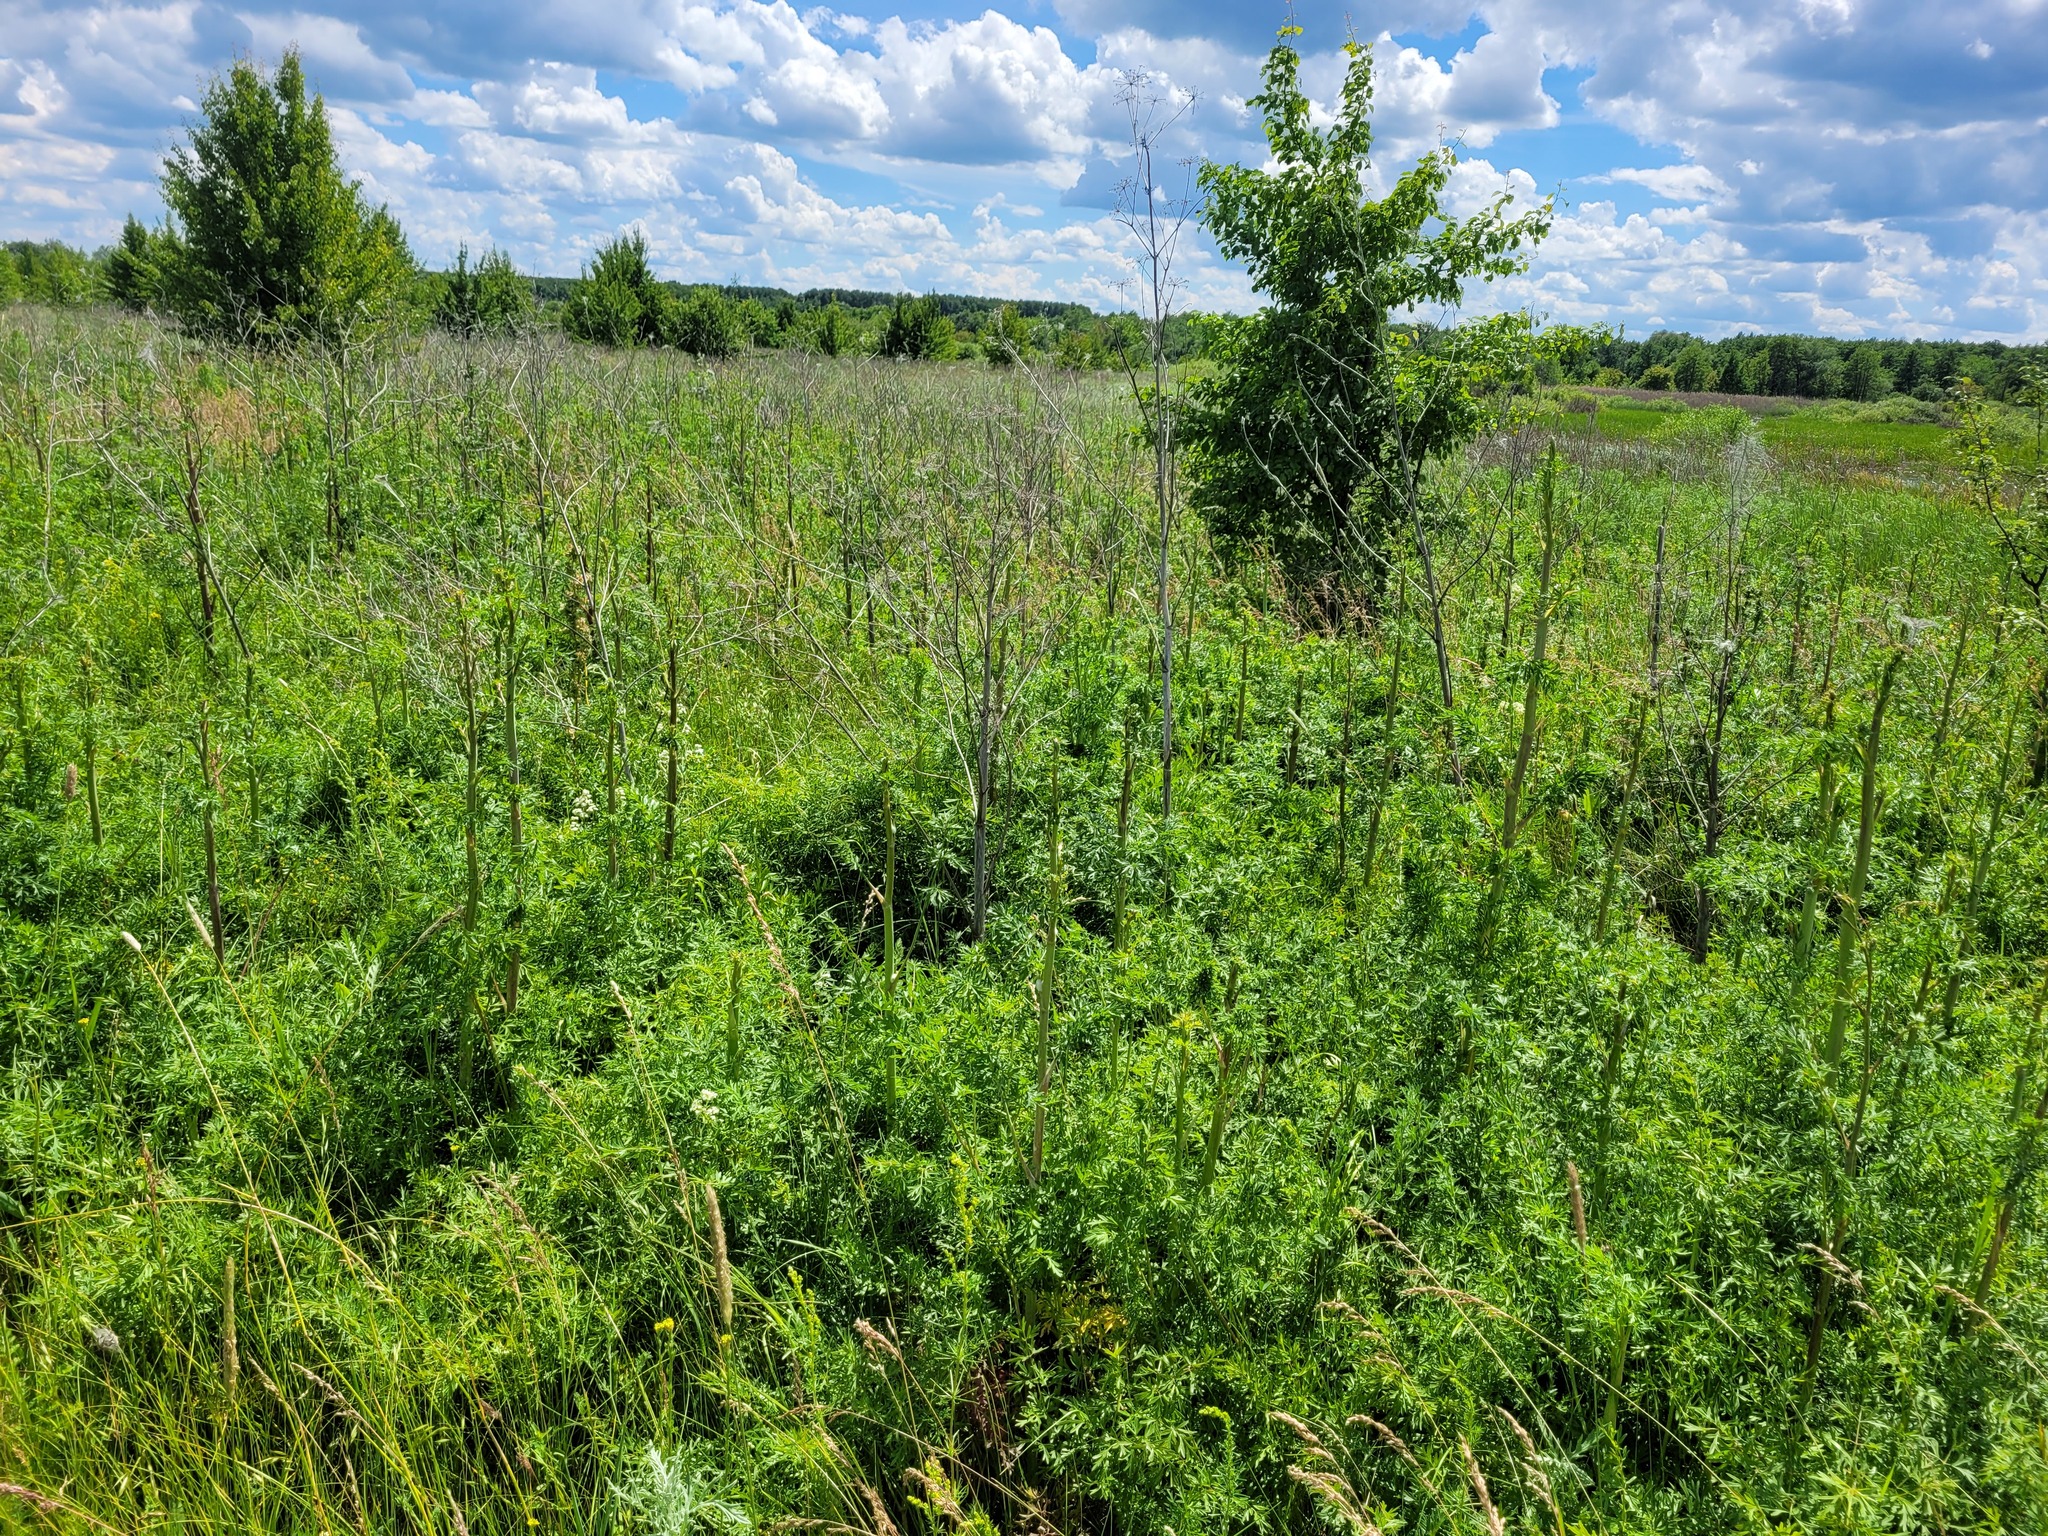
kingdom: Plantae
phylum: Tracheophyta
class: Magnoliopsida
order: Apiales
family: Apiaceae
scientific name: Apiaceae
